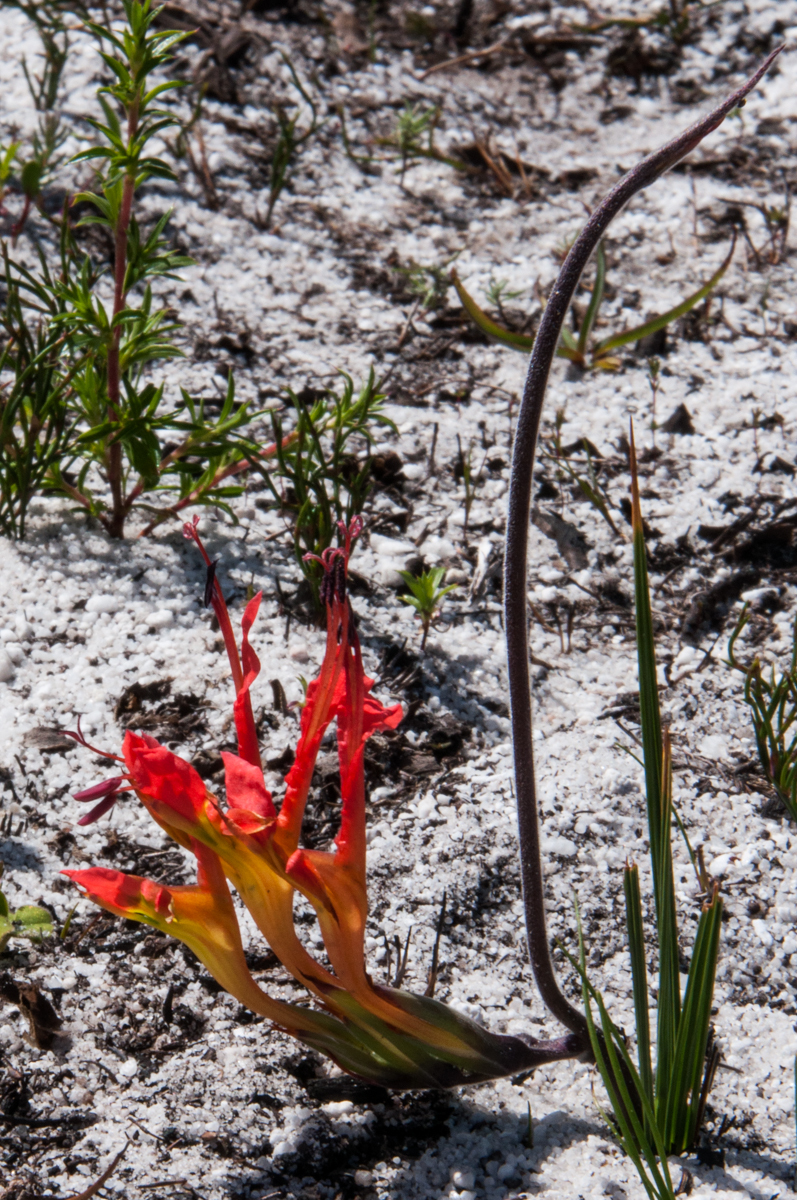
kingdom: Plantae
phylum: Tracheophyta
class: Liliopsida
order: Asparagales
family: Iridaceae
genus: Babiana
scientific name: Babiana ringens
